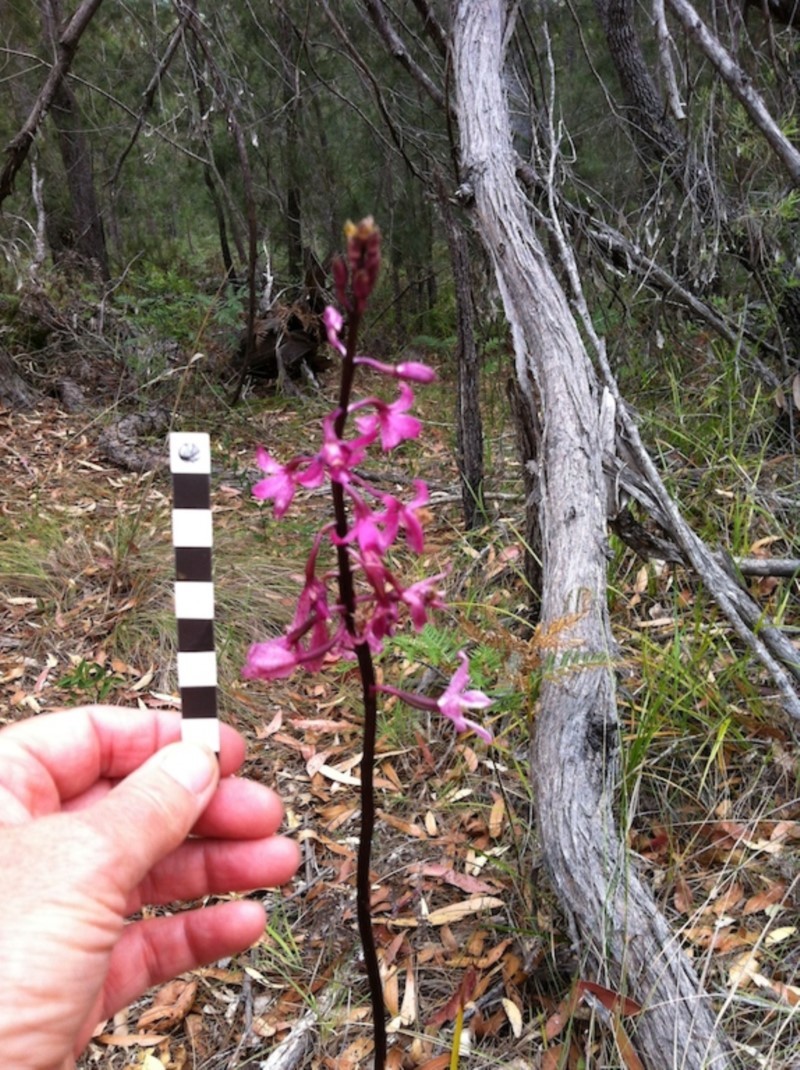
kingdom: Plantae
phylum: Tracheophyta
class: Liliopsida
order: Asparagales
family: Orchidaceae
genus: Dipodium
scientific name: Dipodium roseum
